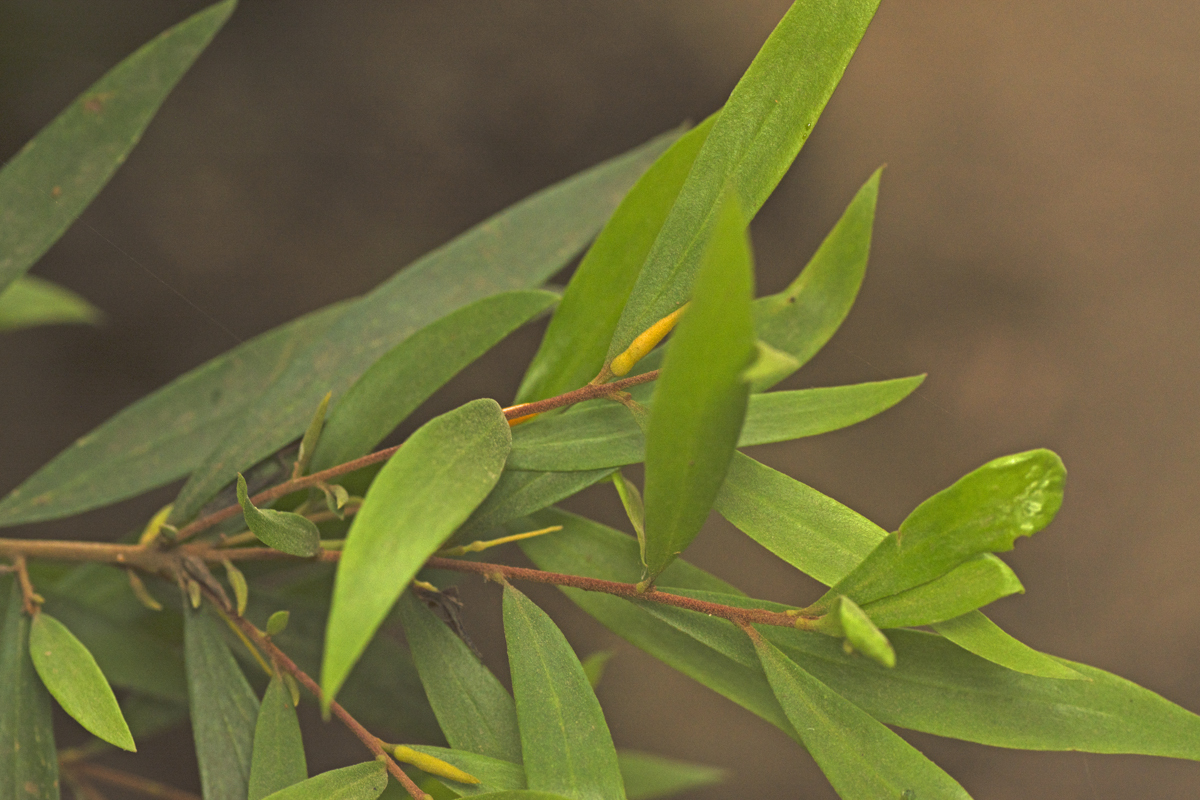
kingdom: Plantae
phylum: Tracheophyta
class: Magnoliopsida
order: Proteales
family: Proteaceae
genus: Persoonia
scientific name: Persoonia iogyna
